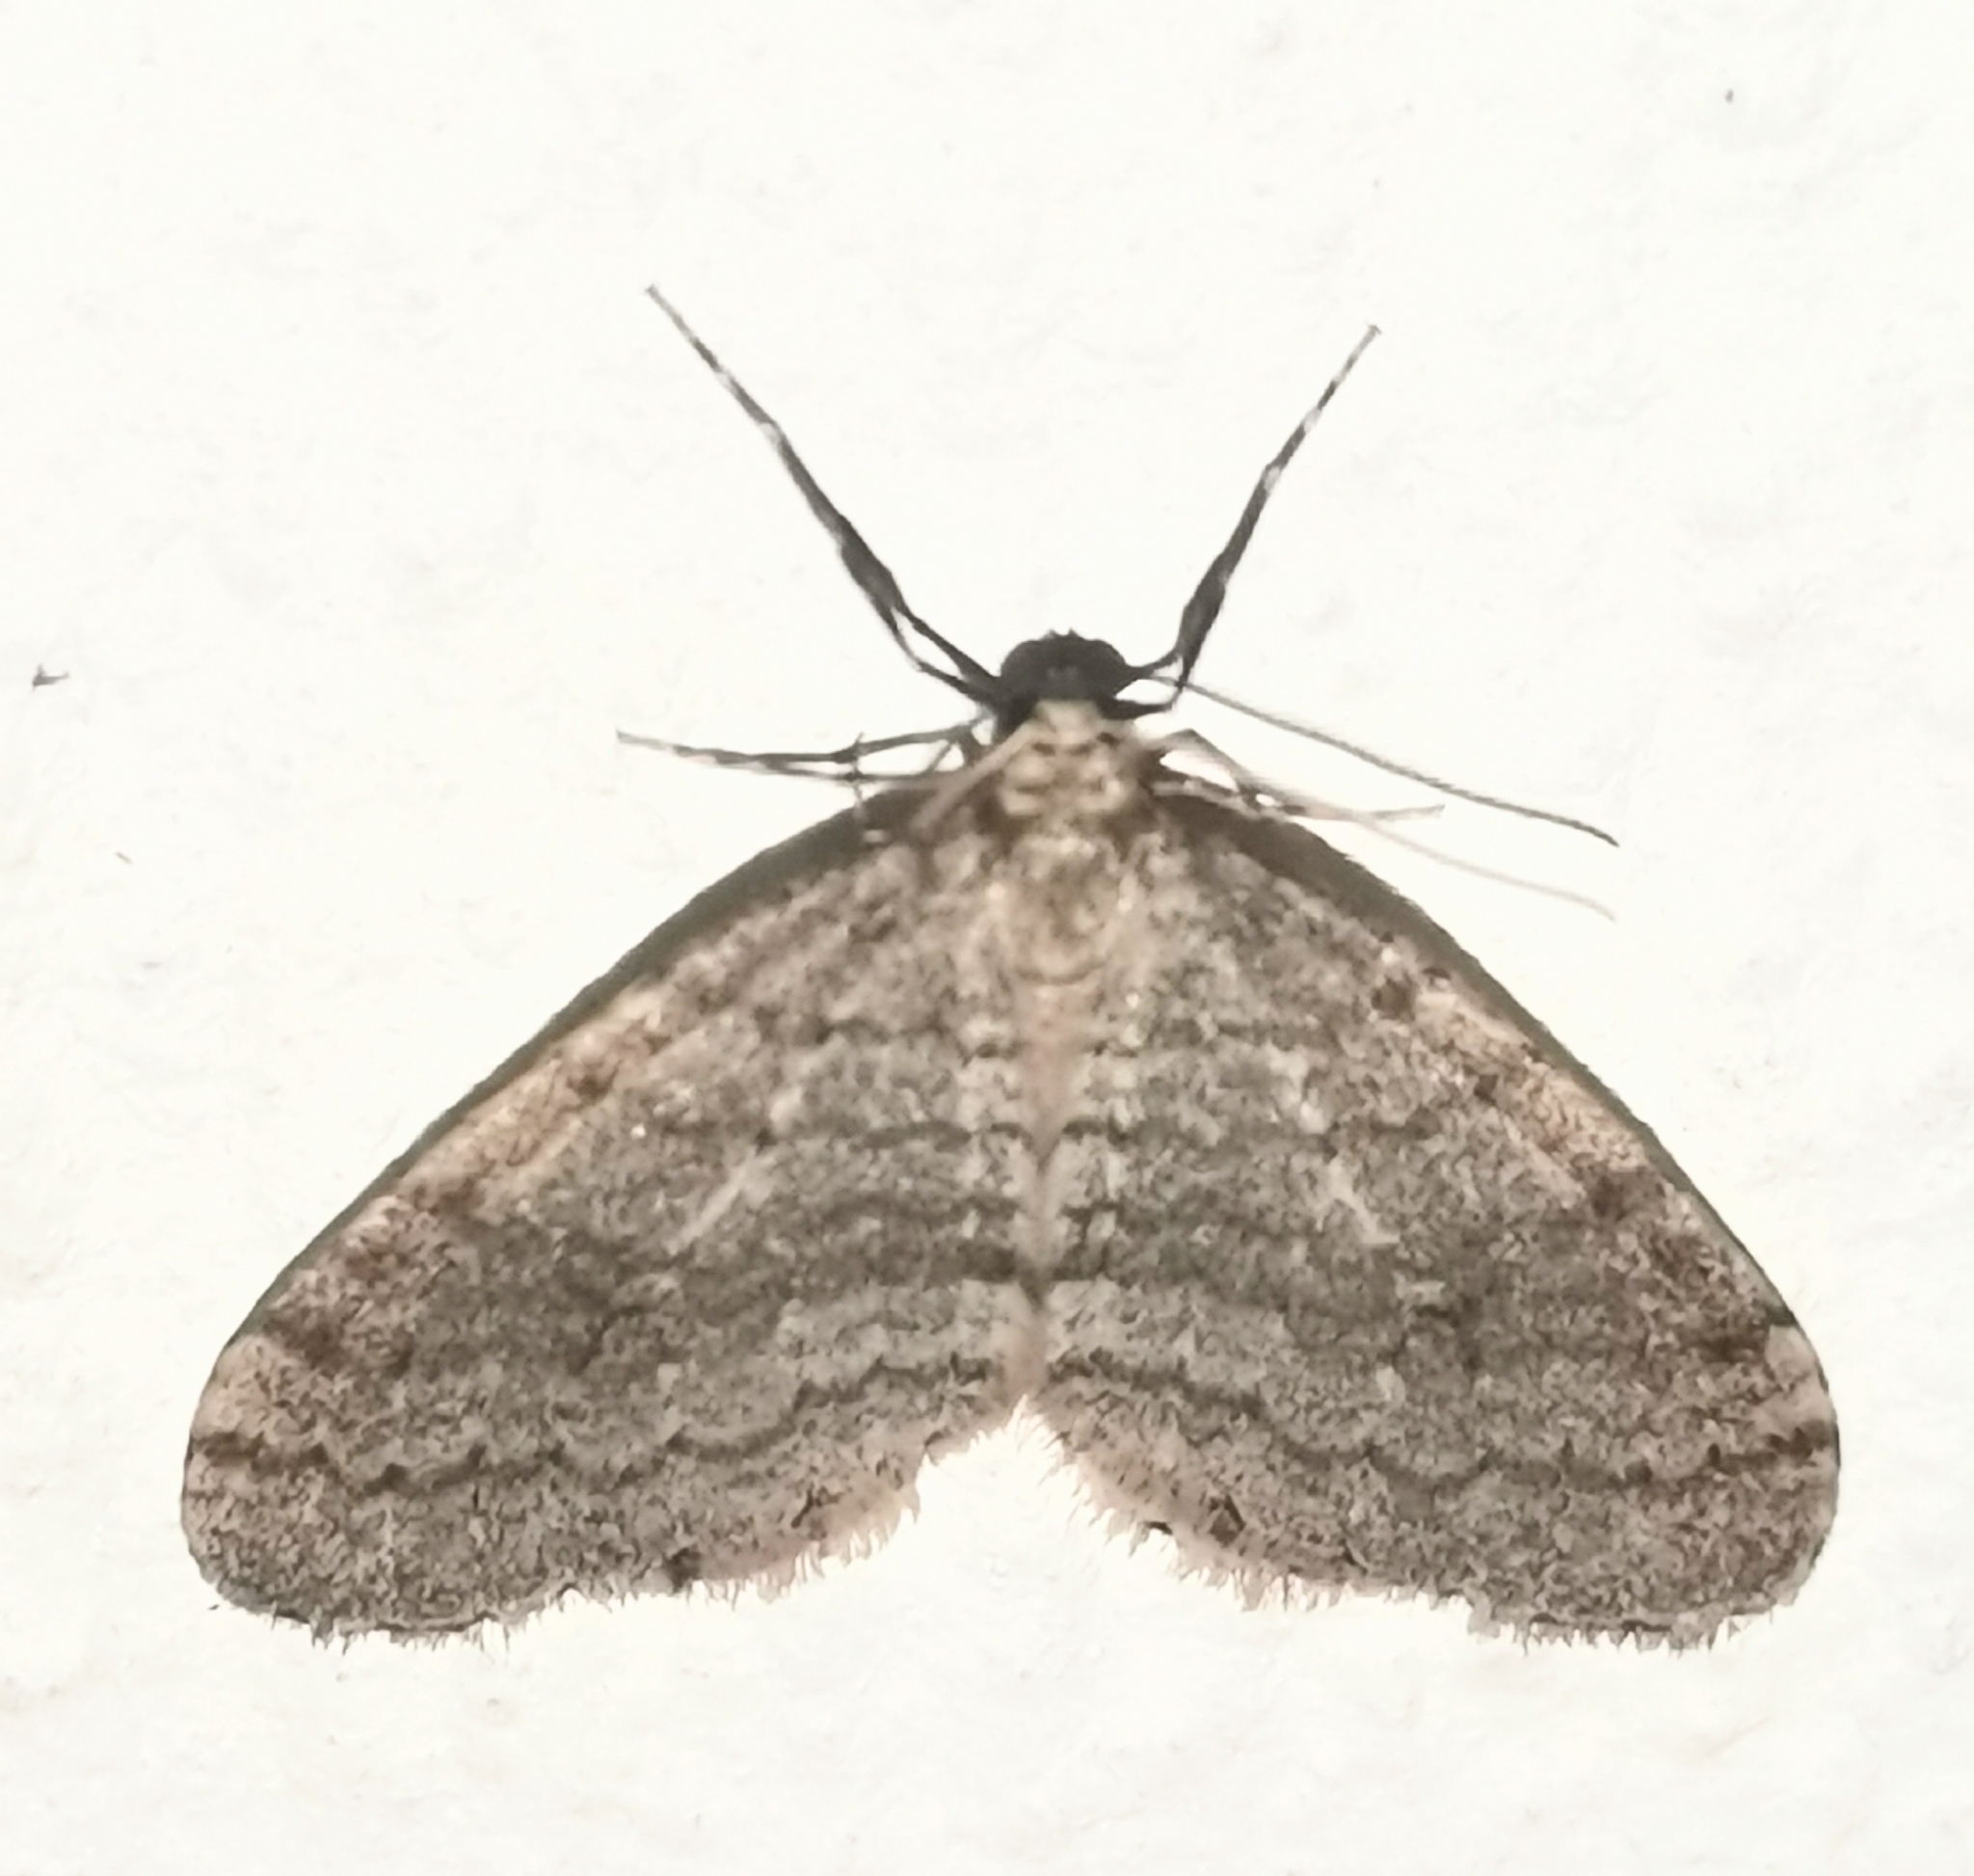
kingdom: Animalia
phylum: Arthropoda
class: Insecta
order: Lepidoptera
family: Geometridae
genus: Operophtera
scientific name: Operophtera brumata
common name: Winter moth
